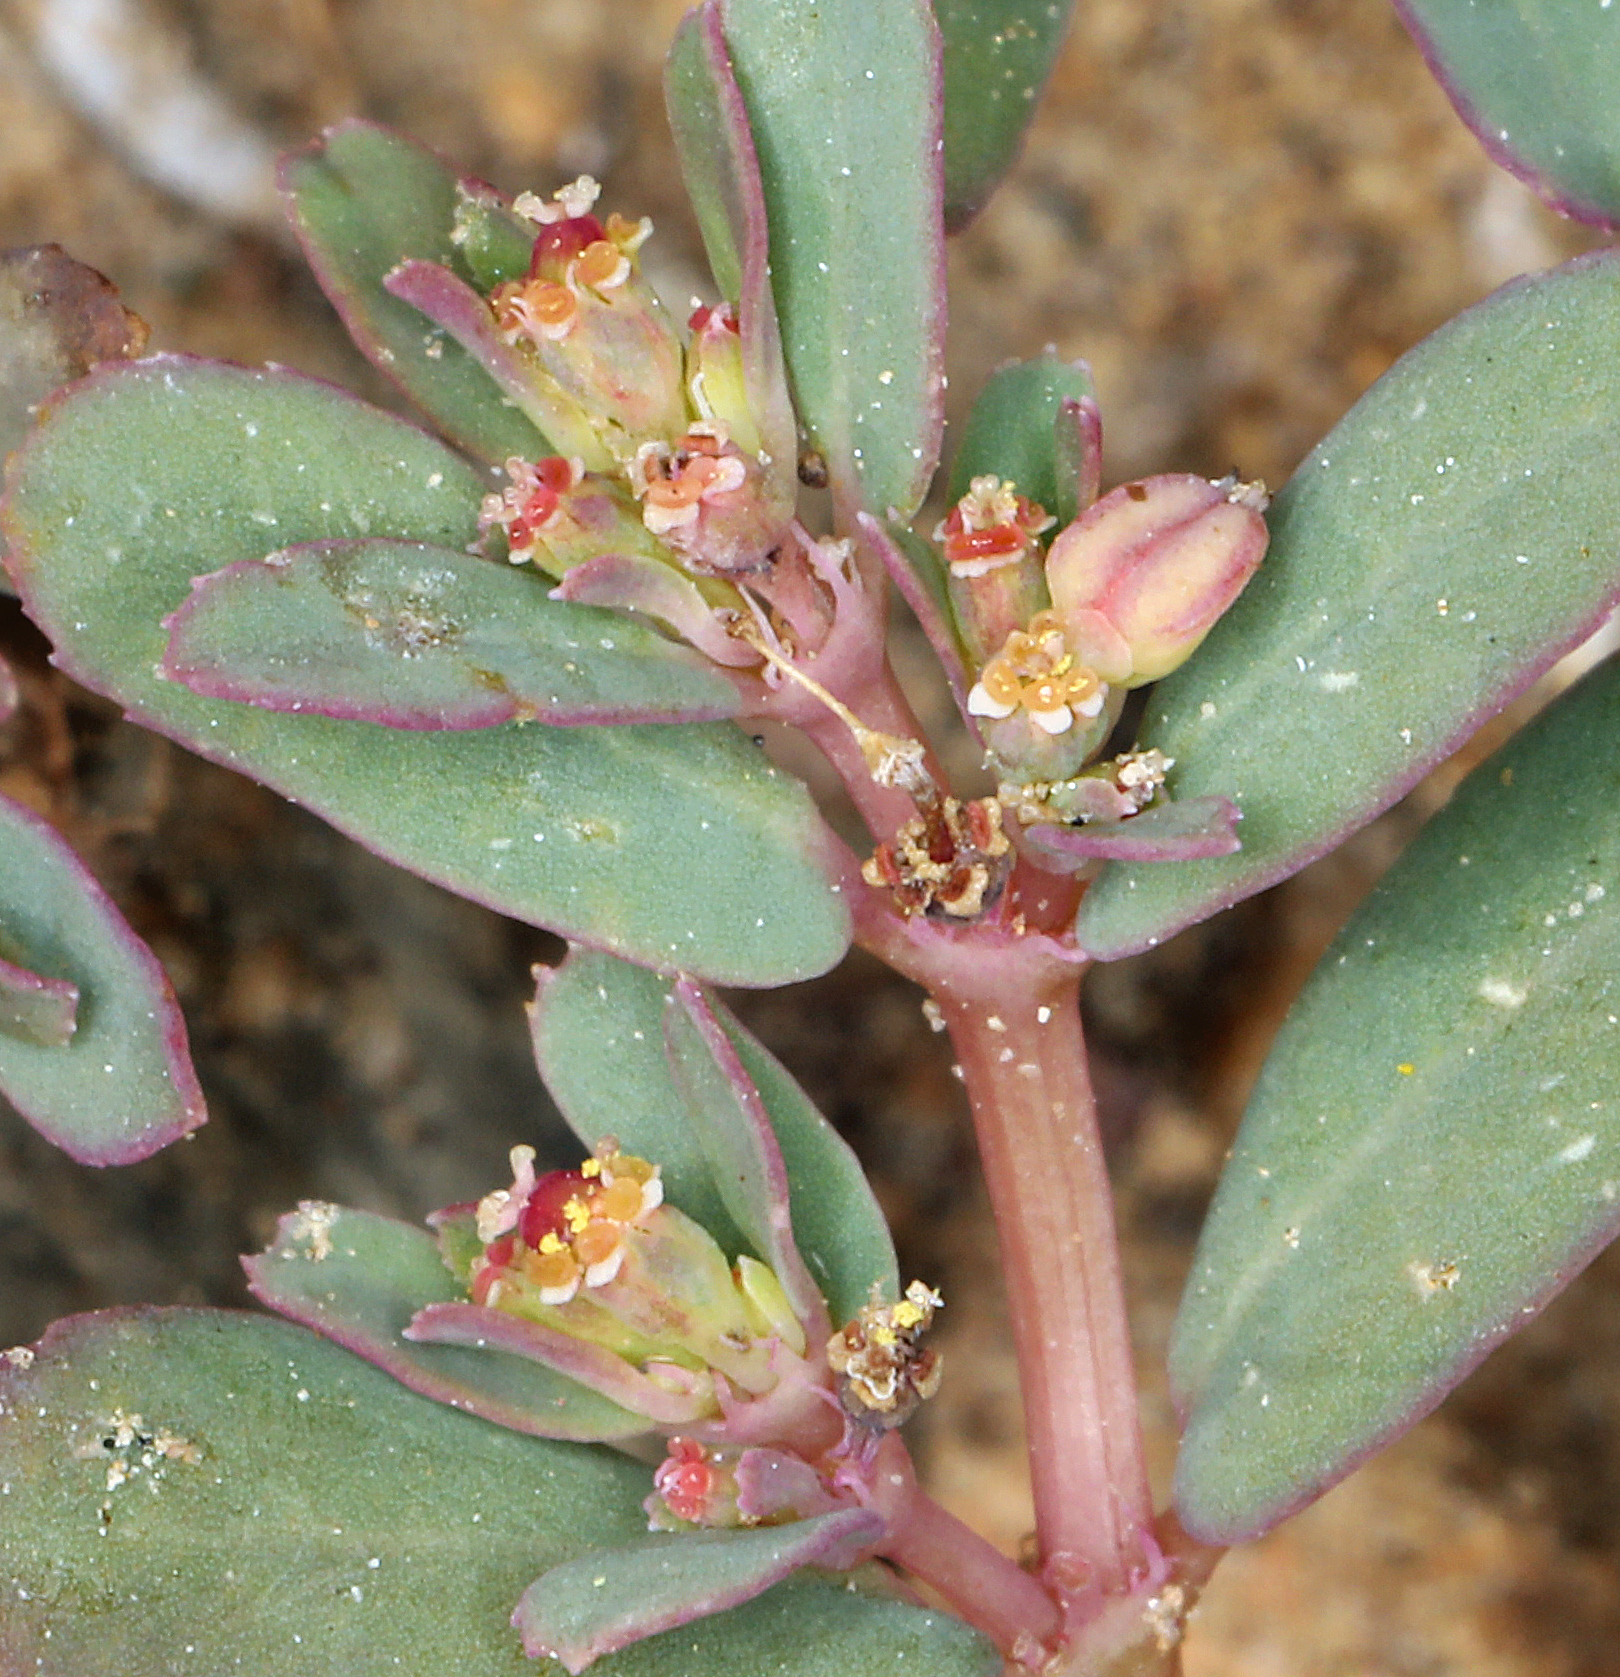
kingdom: Plantae
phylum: Tracheophyta
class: Magnoliopsida
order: Malpighiales
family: Euphorbiaceae
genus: Euphorbia
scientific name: Euphorbia serpillifolia
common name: Thyme-leaf spurge
